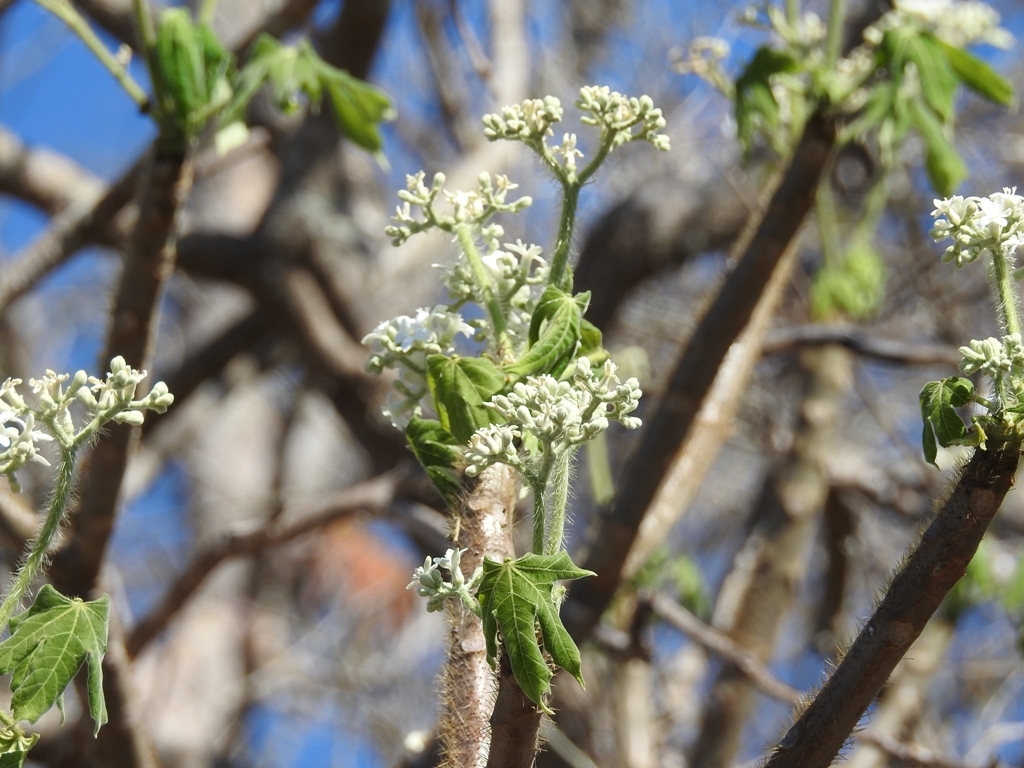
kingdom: Plantae
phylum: Tracheophyta
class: Magnoliopsida
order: Malpighiales
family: Euphorbiaceae
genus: Cnidoscolus
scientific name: Cnidoscolus aconitifolius
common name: Cabbage-star
